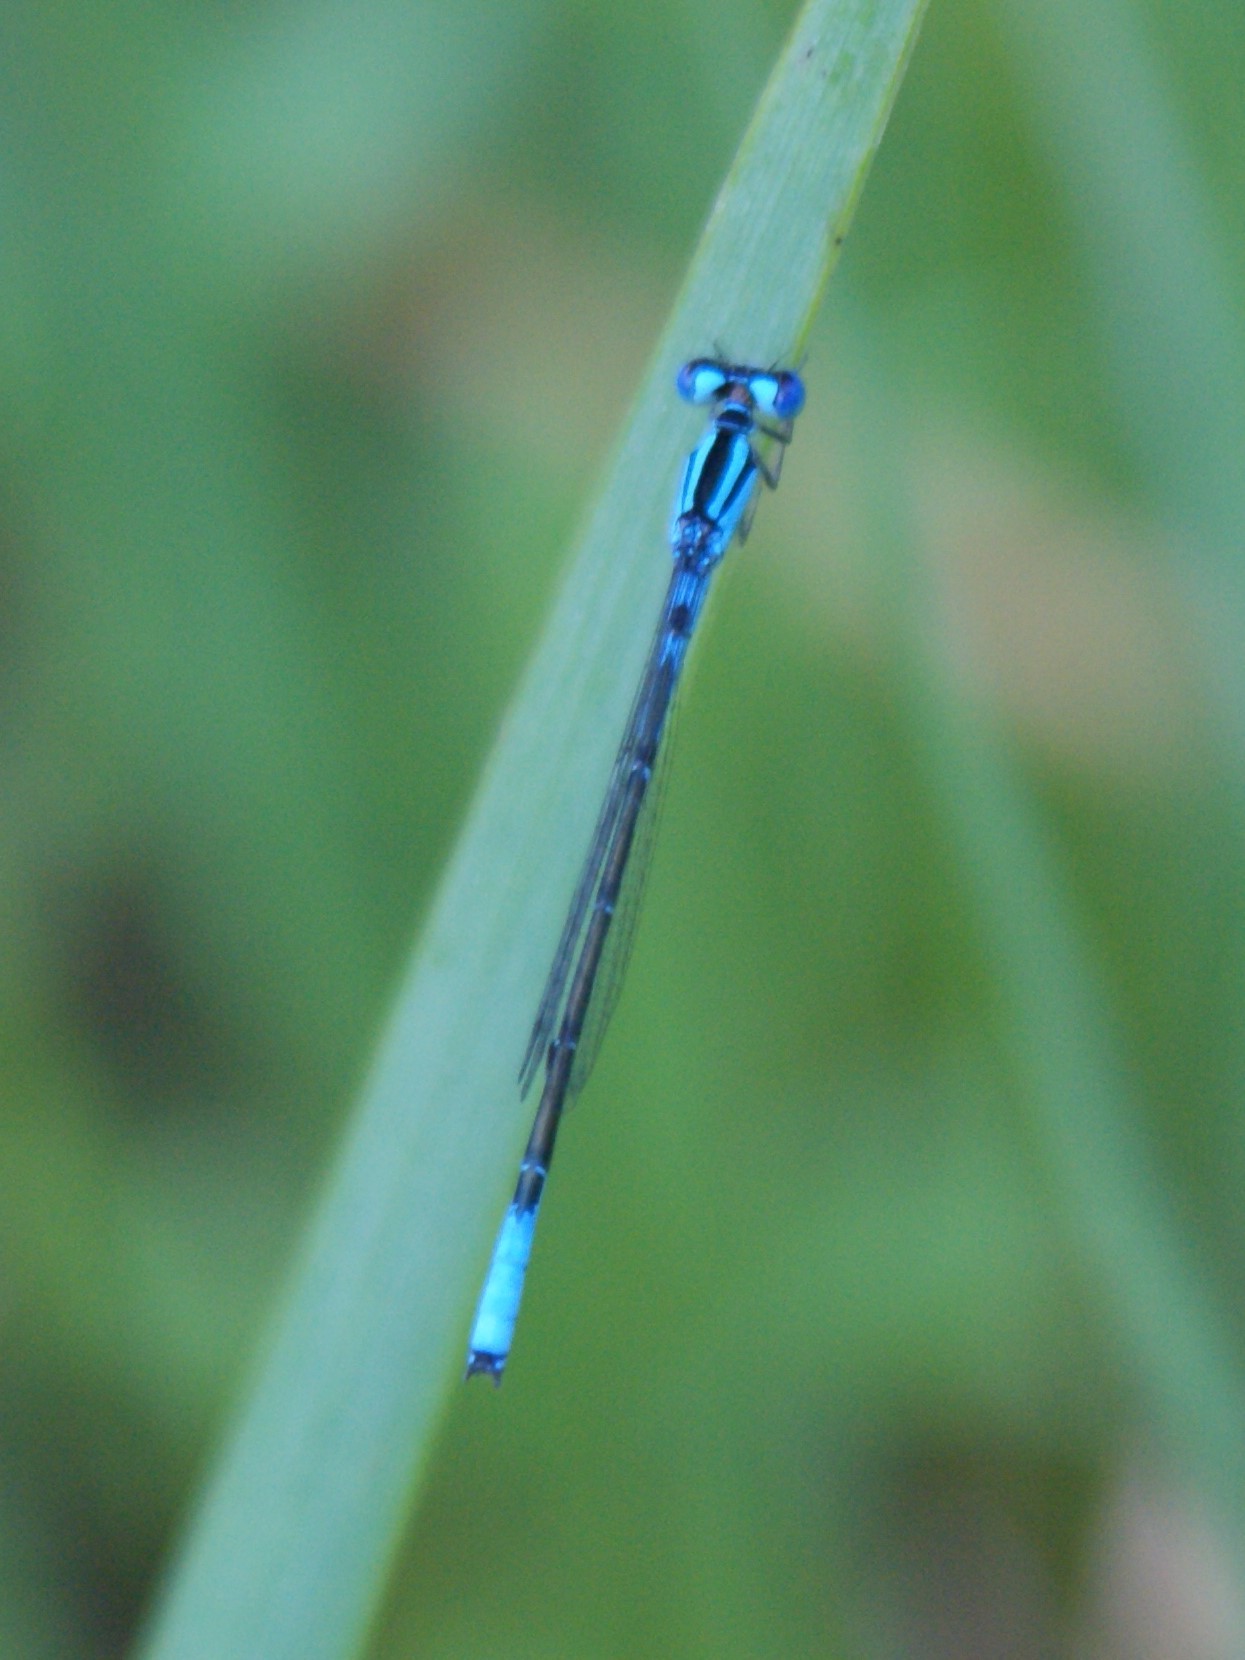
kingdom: Animalia
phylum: Arthropoda
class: Insecta
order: Odonata
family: Coenagrionidae
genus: Enallagma
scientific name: Enallagma aspersum
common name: Azure bluet
